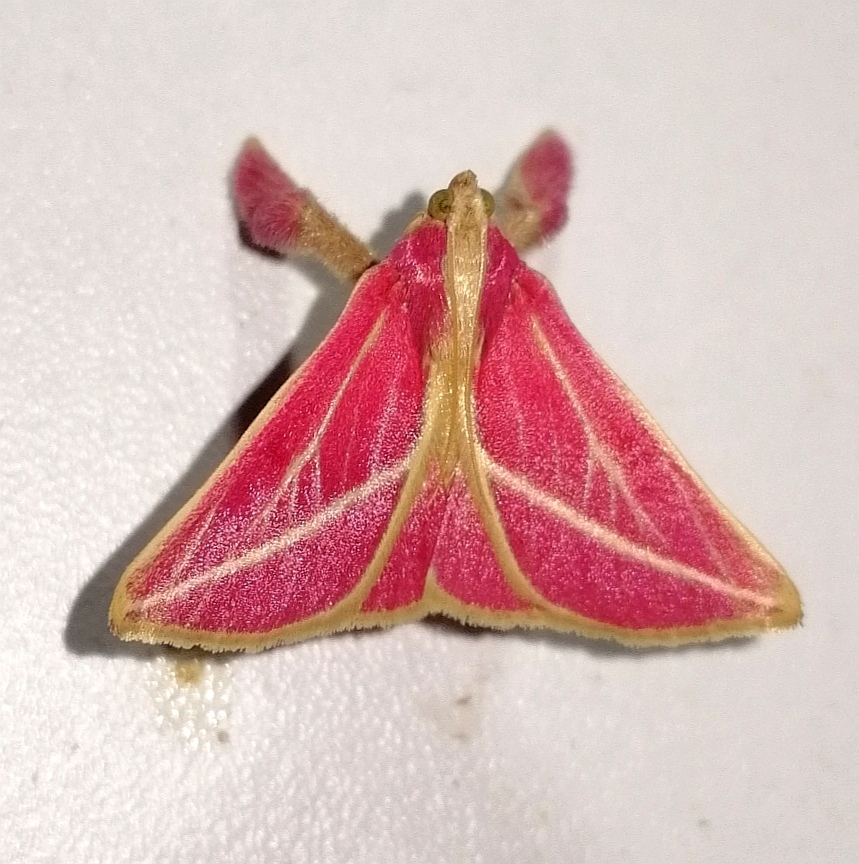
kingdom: Animalia
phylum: Arthropoda
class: Insecta
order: Lepidoptera
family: Pyralidae
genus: Pachypodistes
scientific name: Pachypodistes
